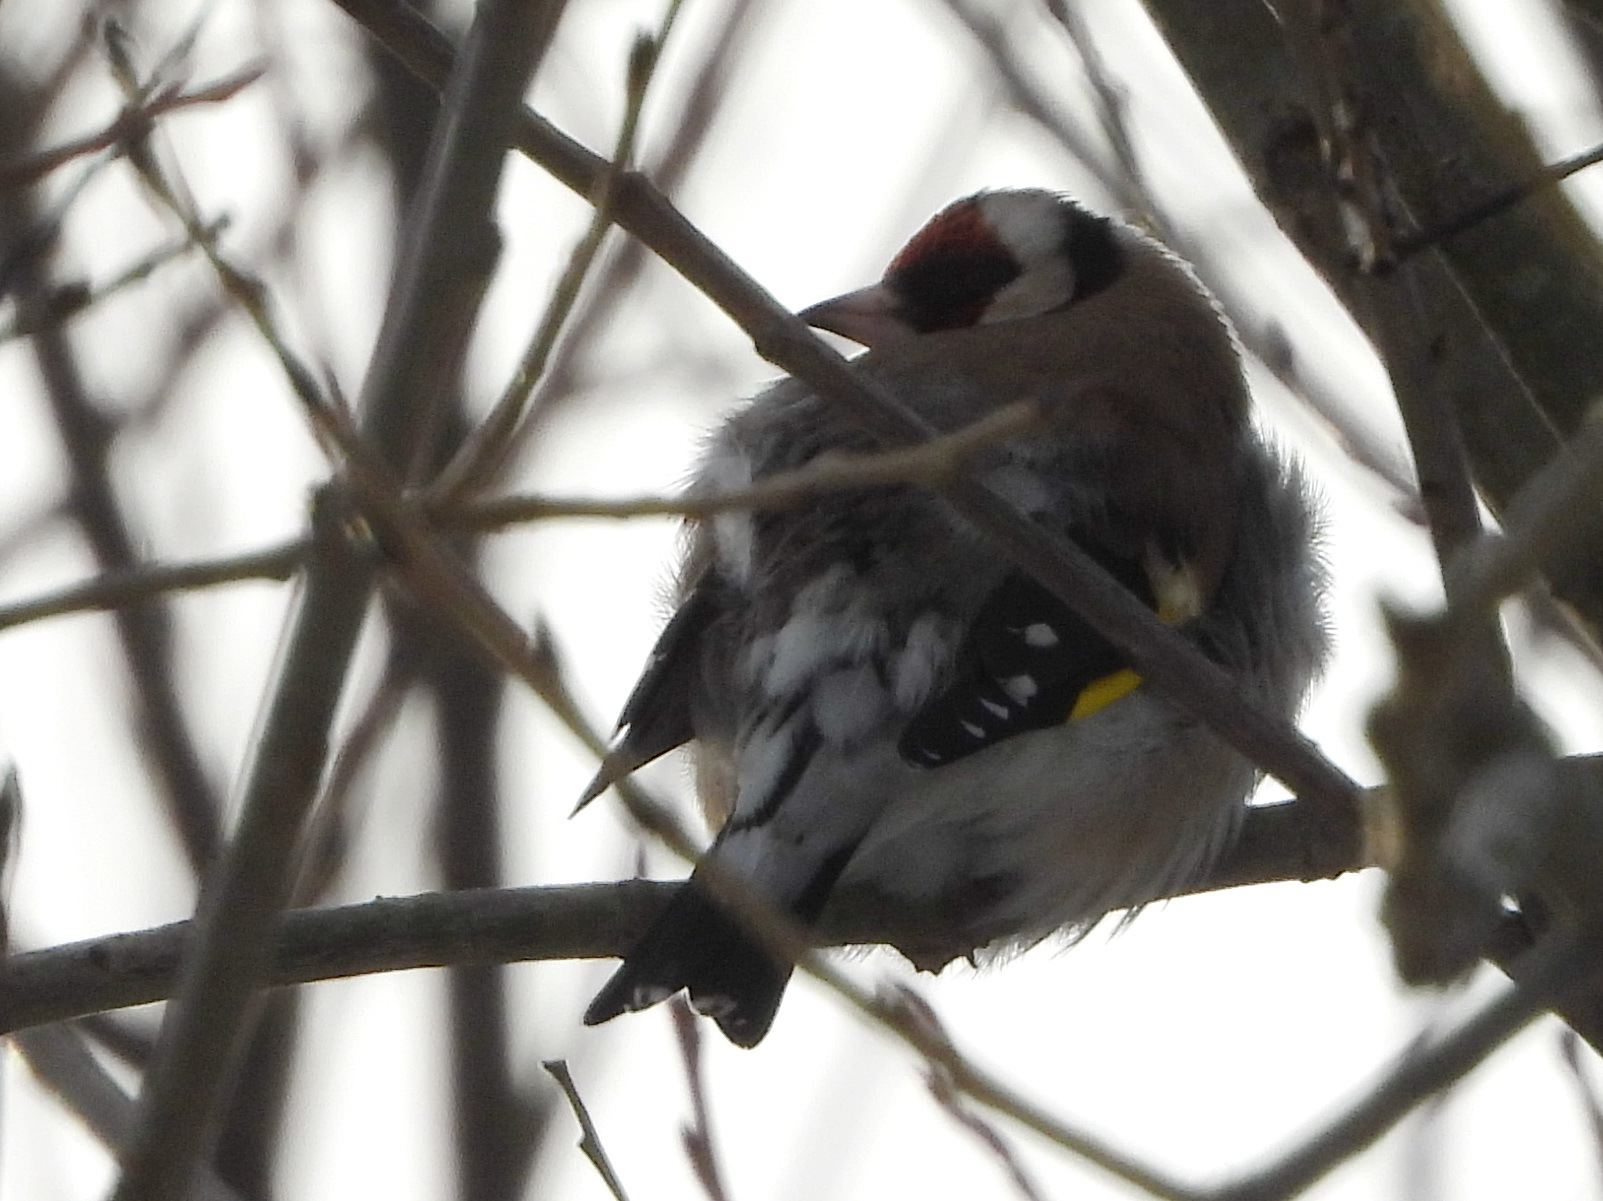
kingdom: Animalia
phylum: Chordata
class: Aves
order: Passeriformes
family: Fringillidae
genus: Carduelis
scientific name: Carduelis carduelis
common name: European goldfinch
